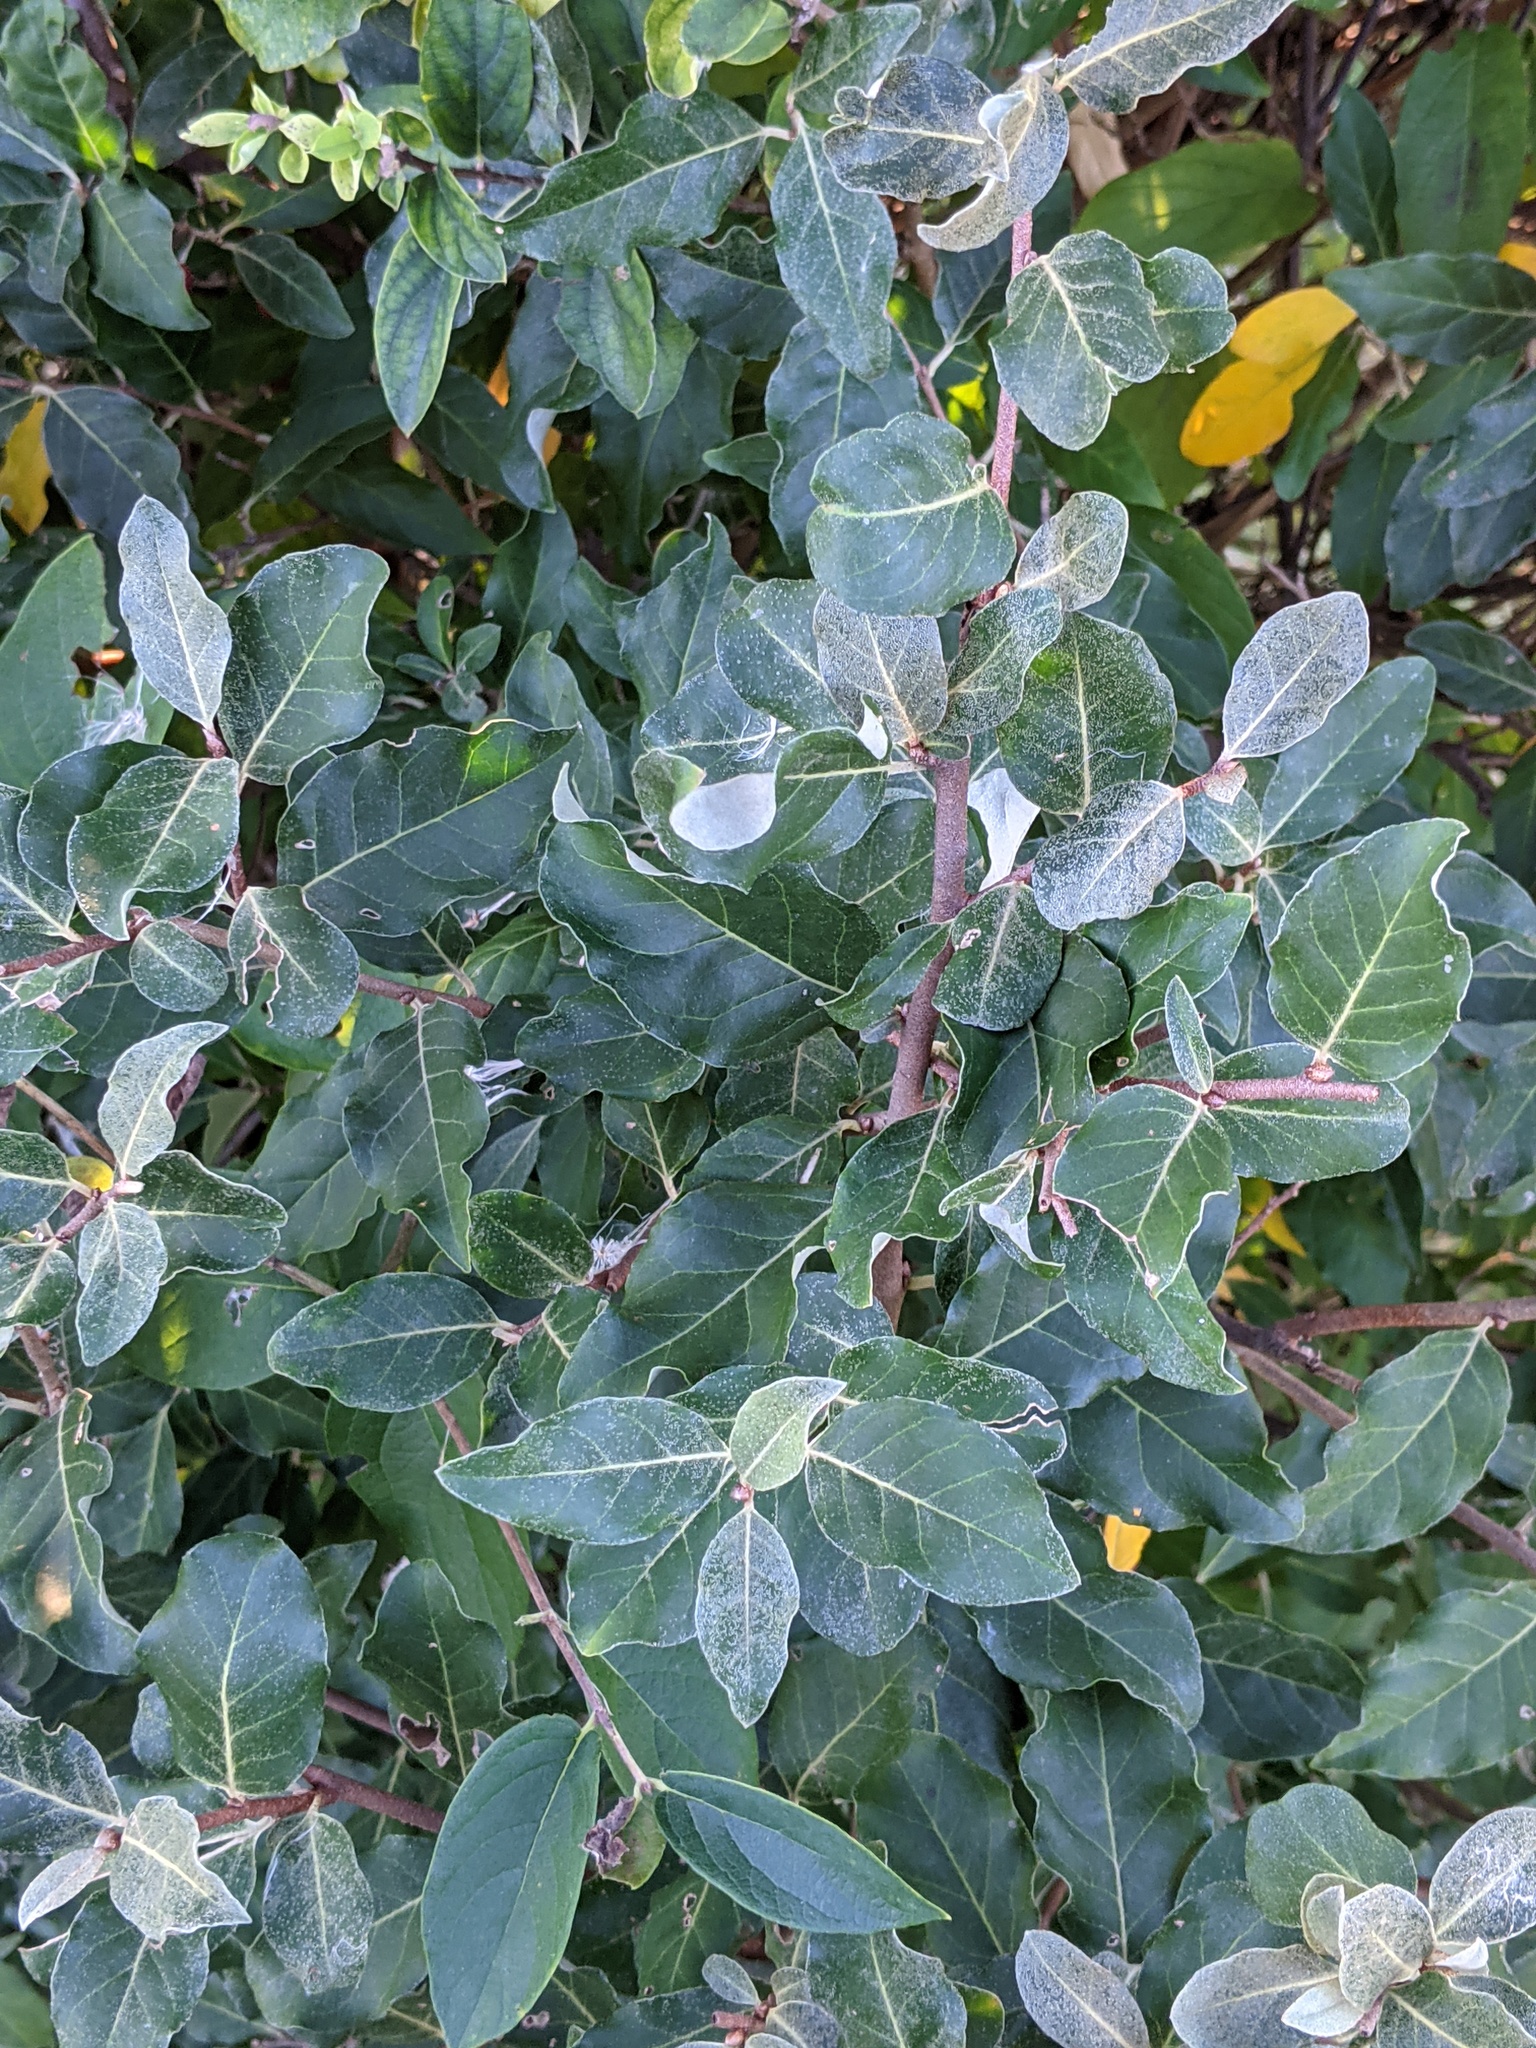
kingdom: Plantae
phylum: Tracheophyta
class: Magnoliopsida
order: Rosales
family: Elaeagnaceae
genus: Elaeagnus
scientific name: Elaeagnus umbellata
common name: Autumn olive
